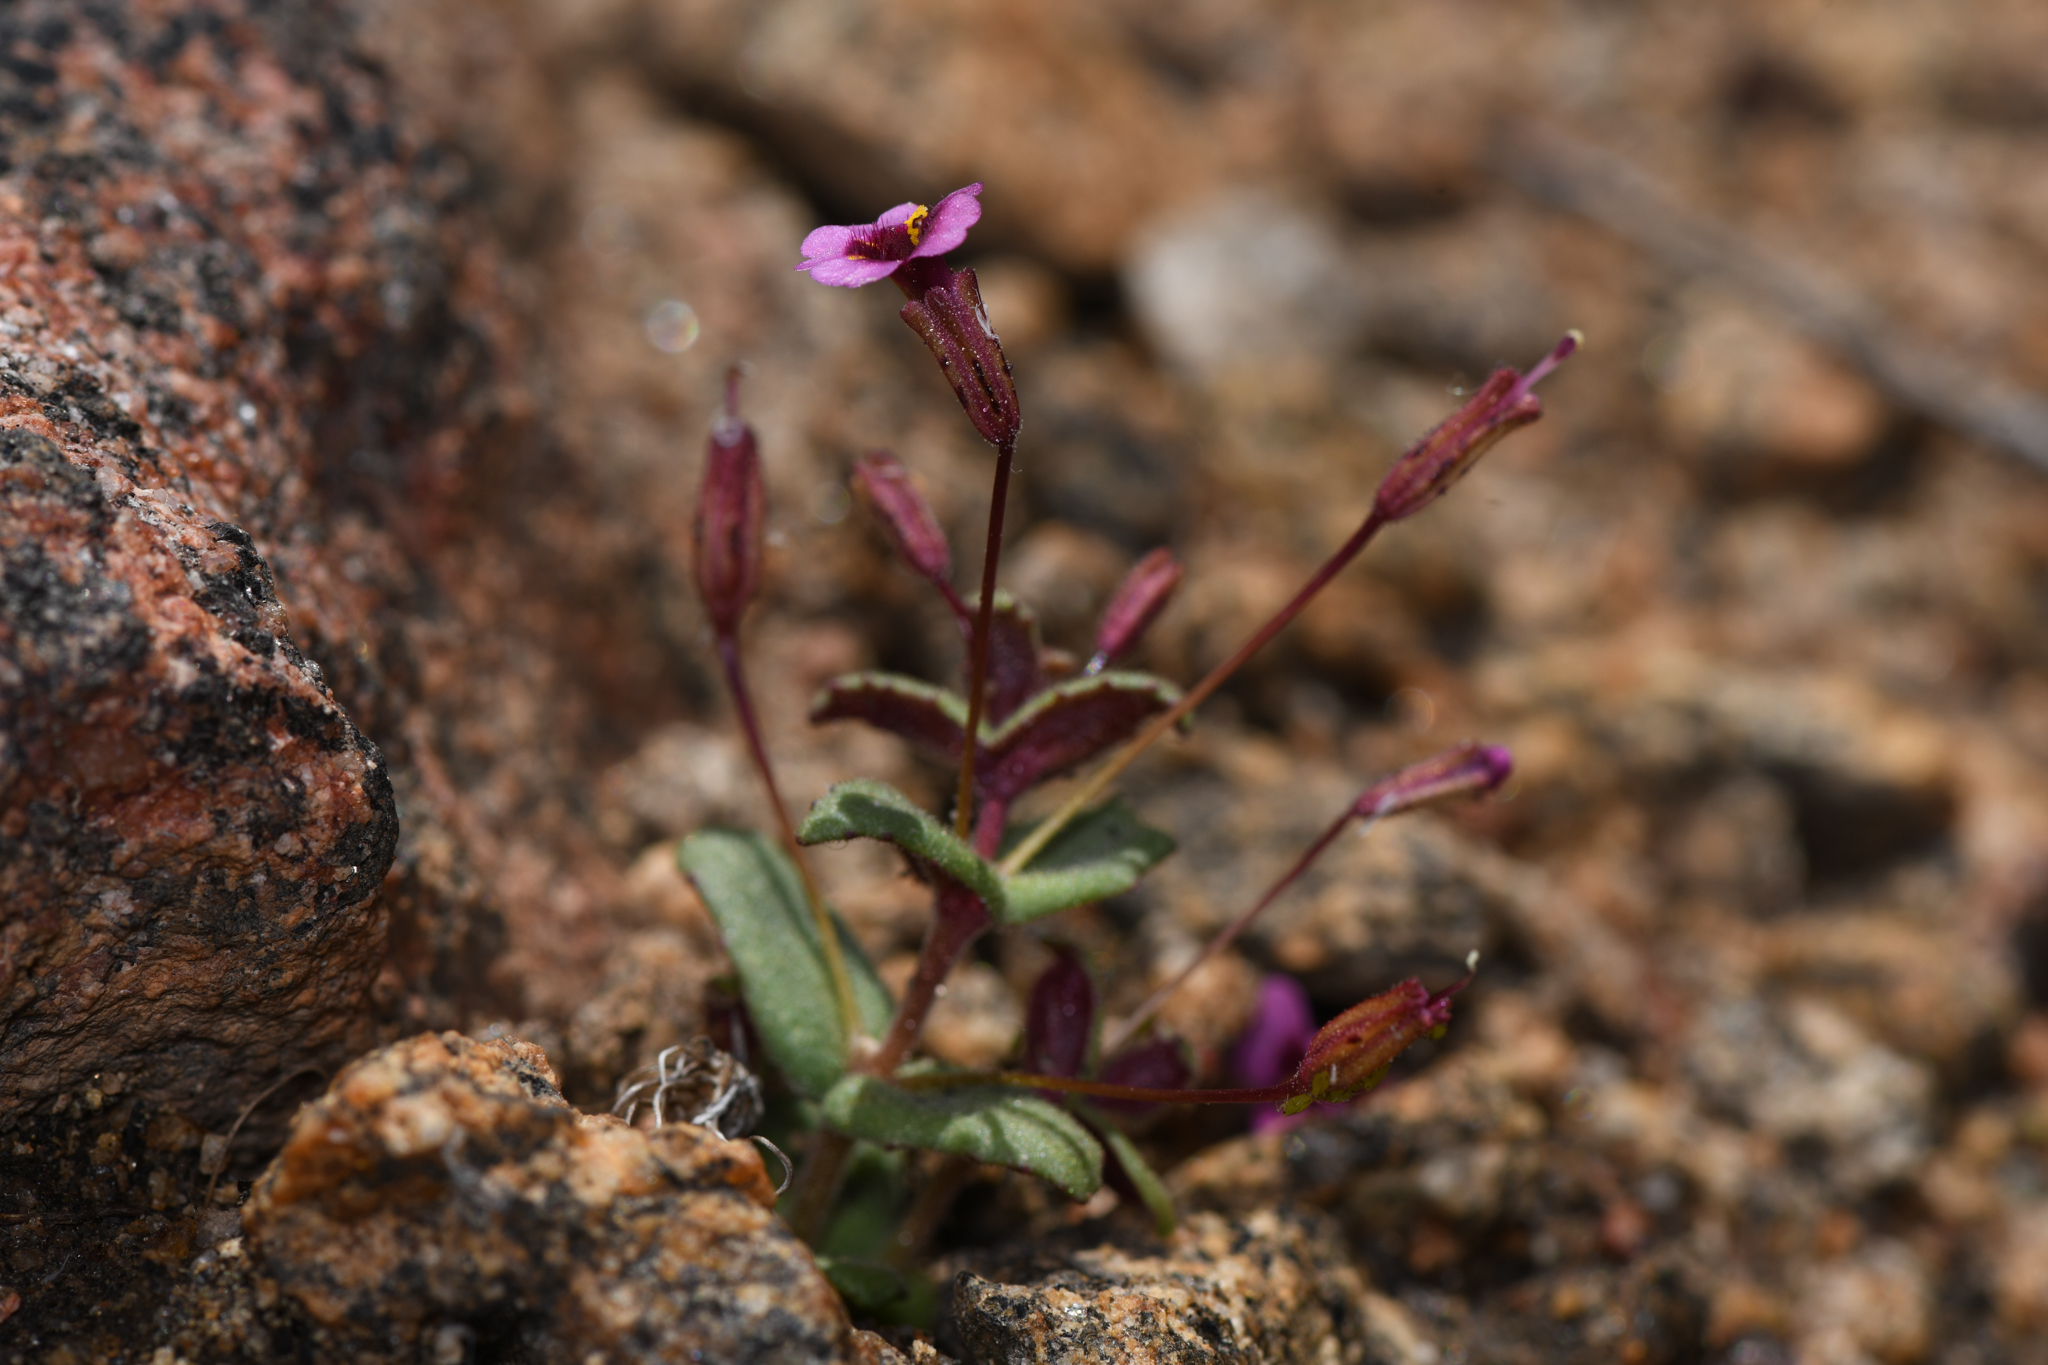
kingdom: Plantae
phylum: Tracheophyta
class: Magnoliopsida
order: Lamiales
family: Phrymaceae
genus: Erythranthe
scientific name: Erythranthe androsacea
